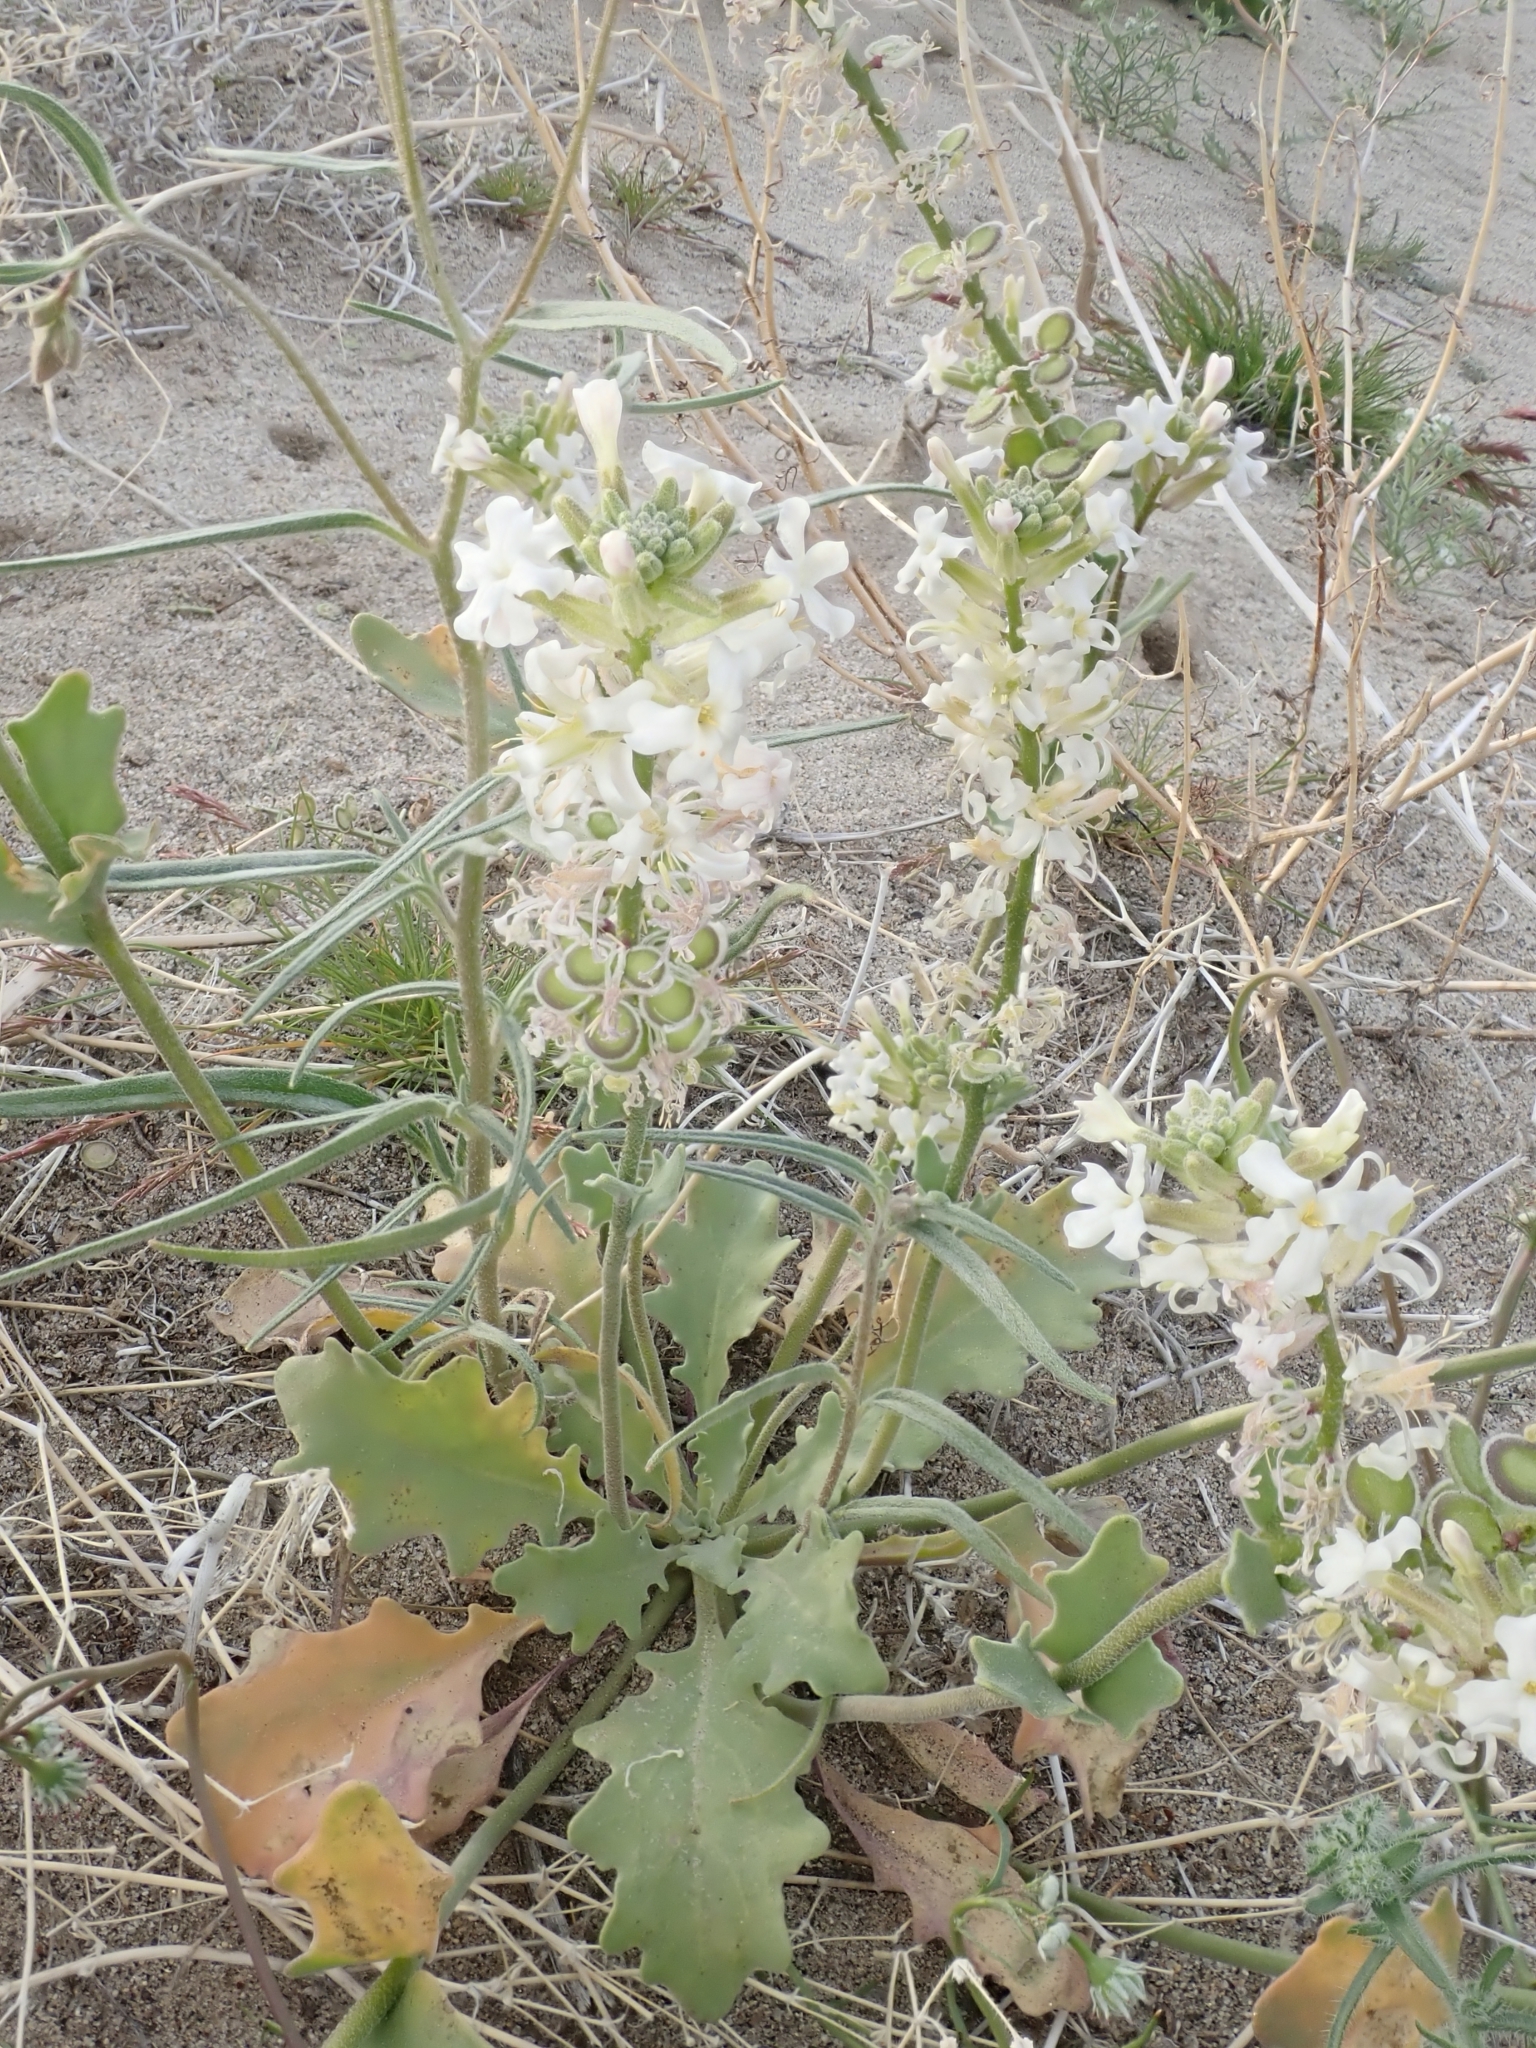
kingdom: Plantae
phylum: Tracheophyta
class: Magnoliopsida
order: Brassicales
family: Brassicaceae
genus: Dithyrea
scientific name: Dithyrea californica
